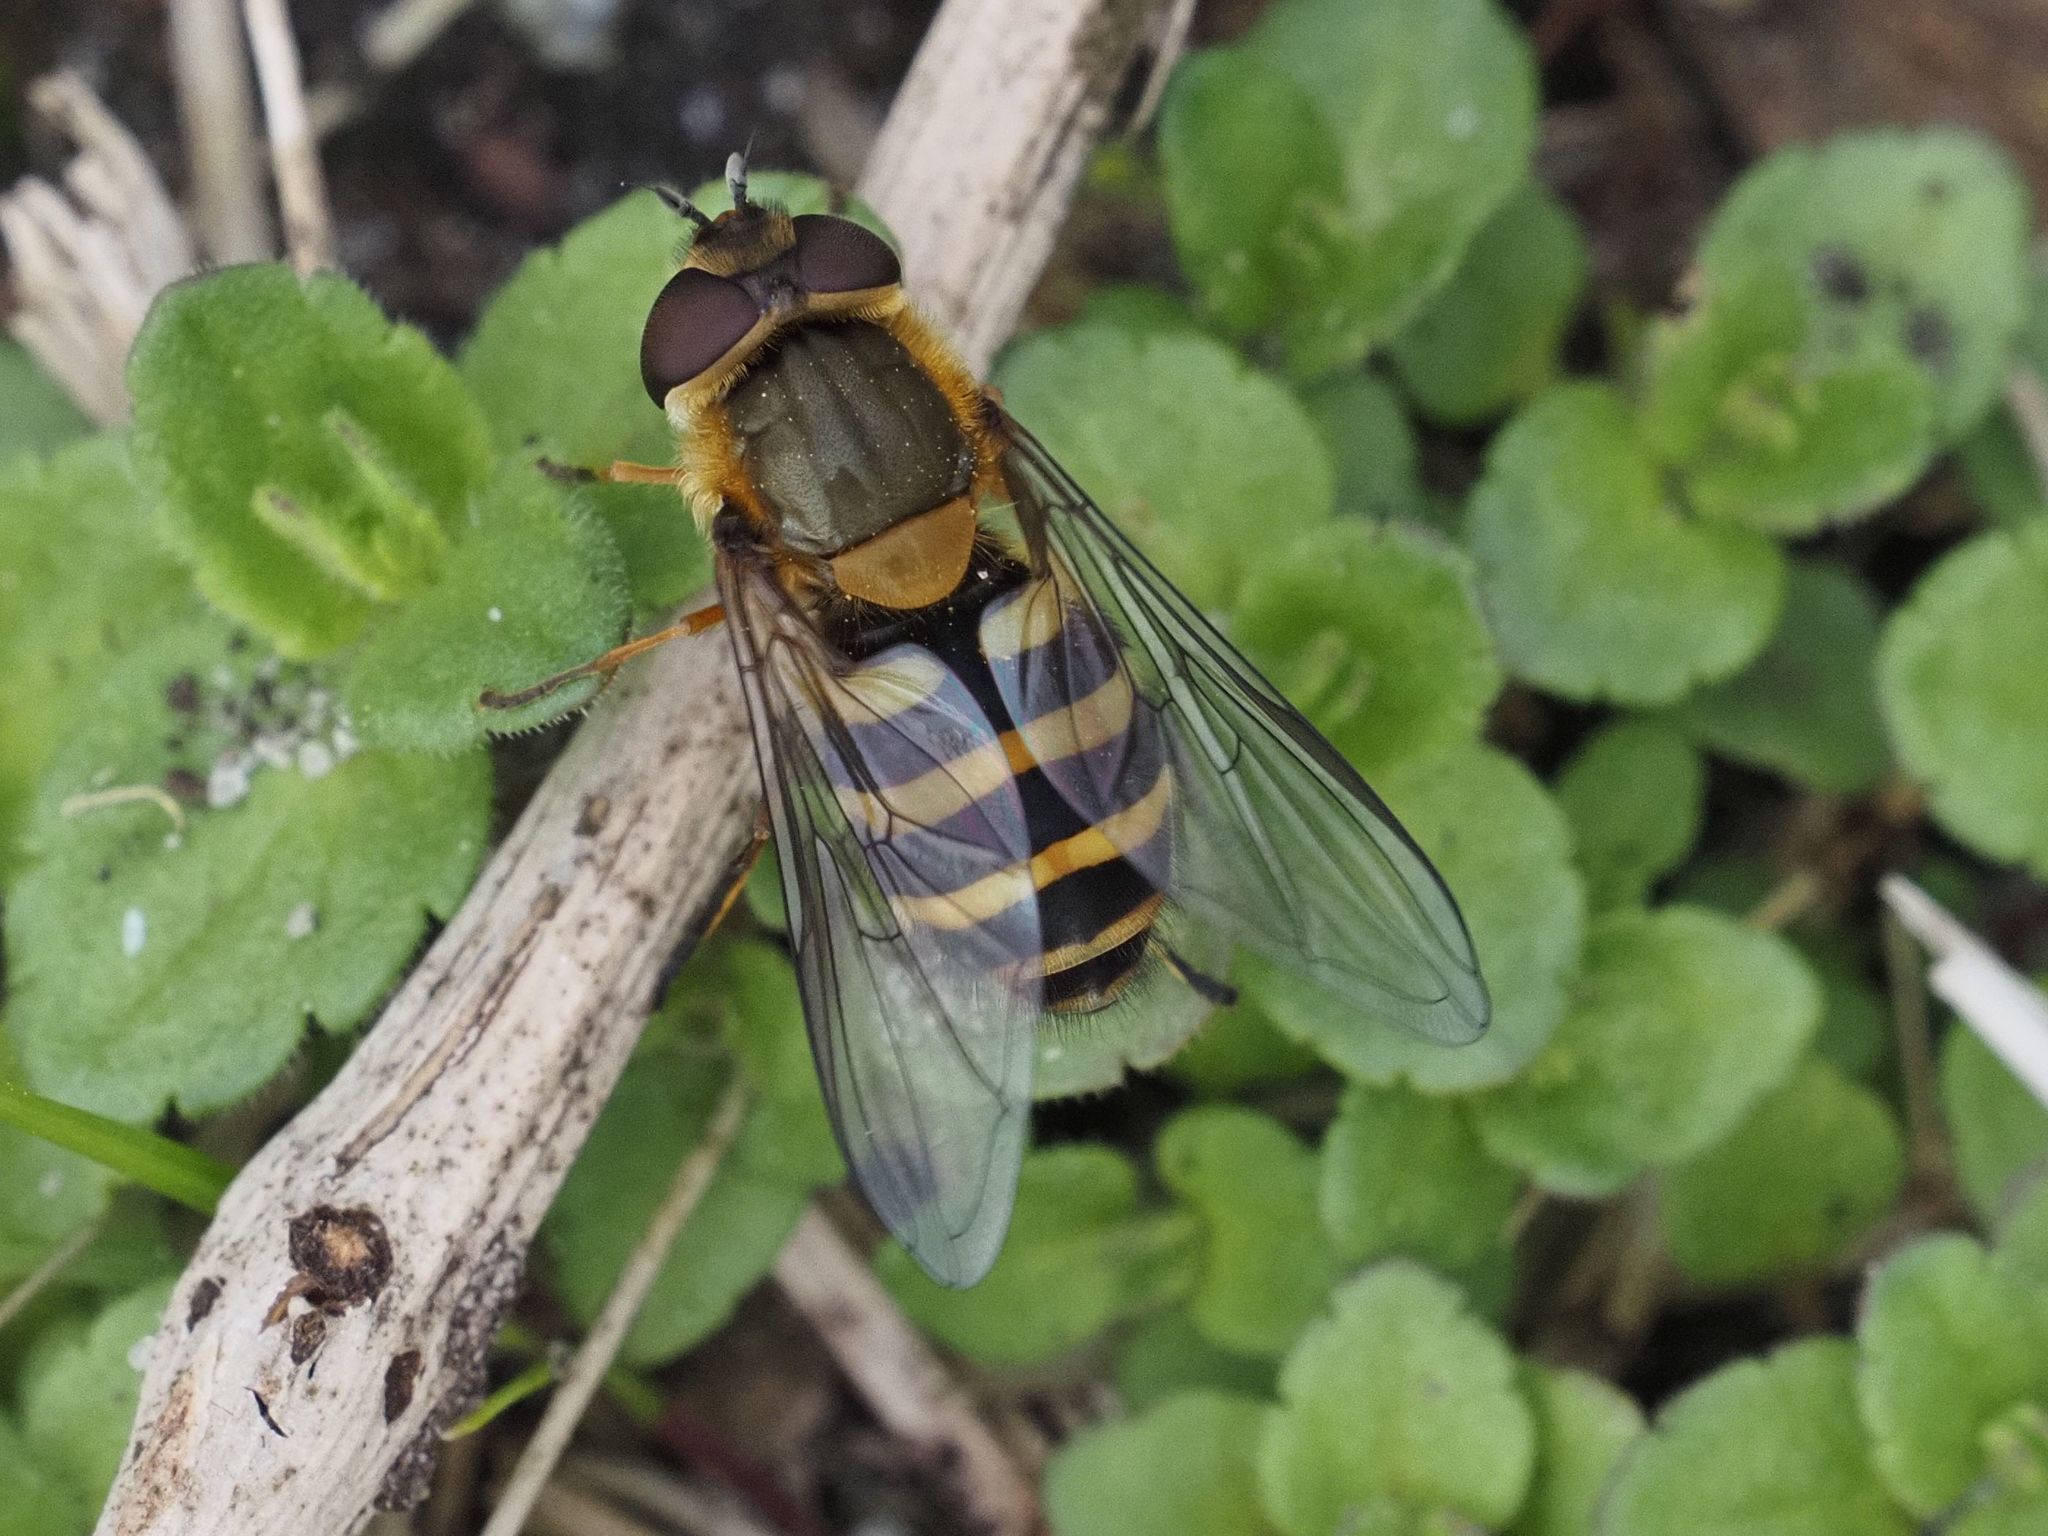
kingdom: Animalia
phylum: Arthropoda
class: Insecta
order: Diptera
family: Syrphidae
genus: Syrphus
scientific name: Syrphus torvus
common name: Hairy-eyed flower fly
